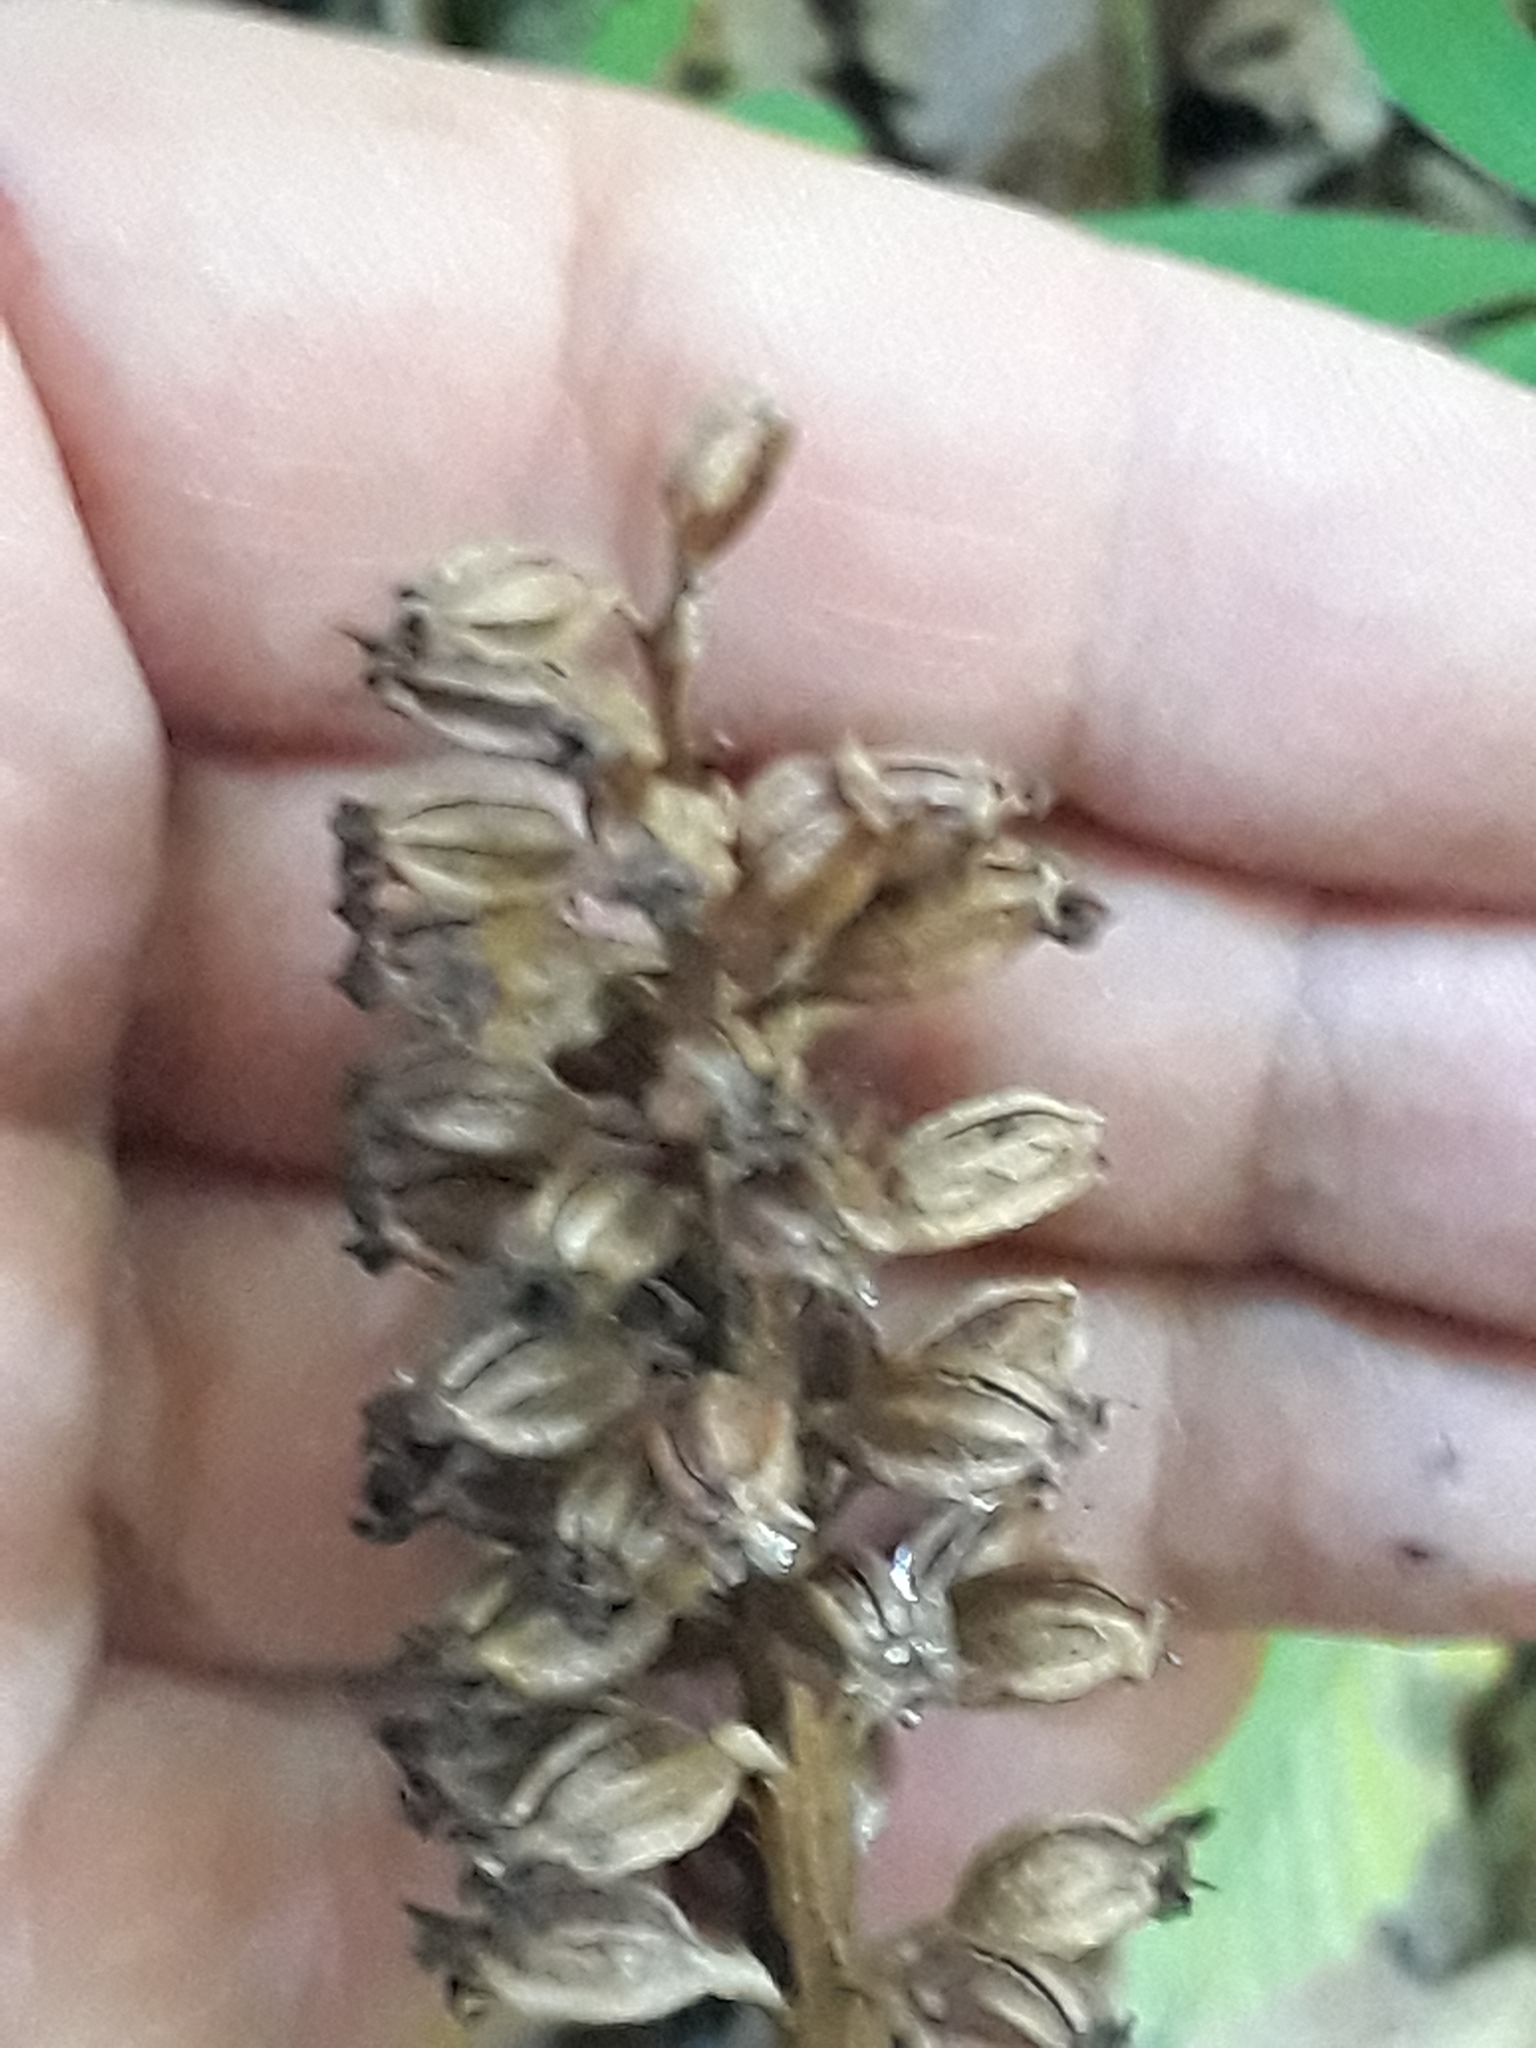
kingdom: Plantae
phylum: Tracheophyta
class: Liliopsida
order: Asparagales
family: Orchidaceae
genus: Neottia
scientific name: Neottia nidus-avis
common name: Bird's-nest orchid
